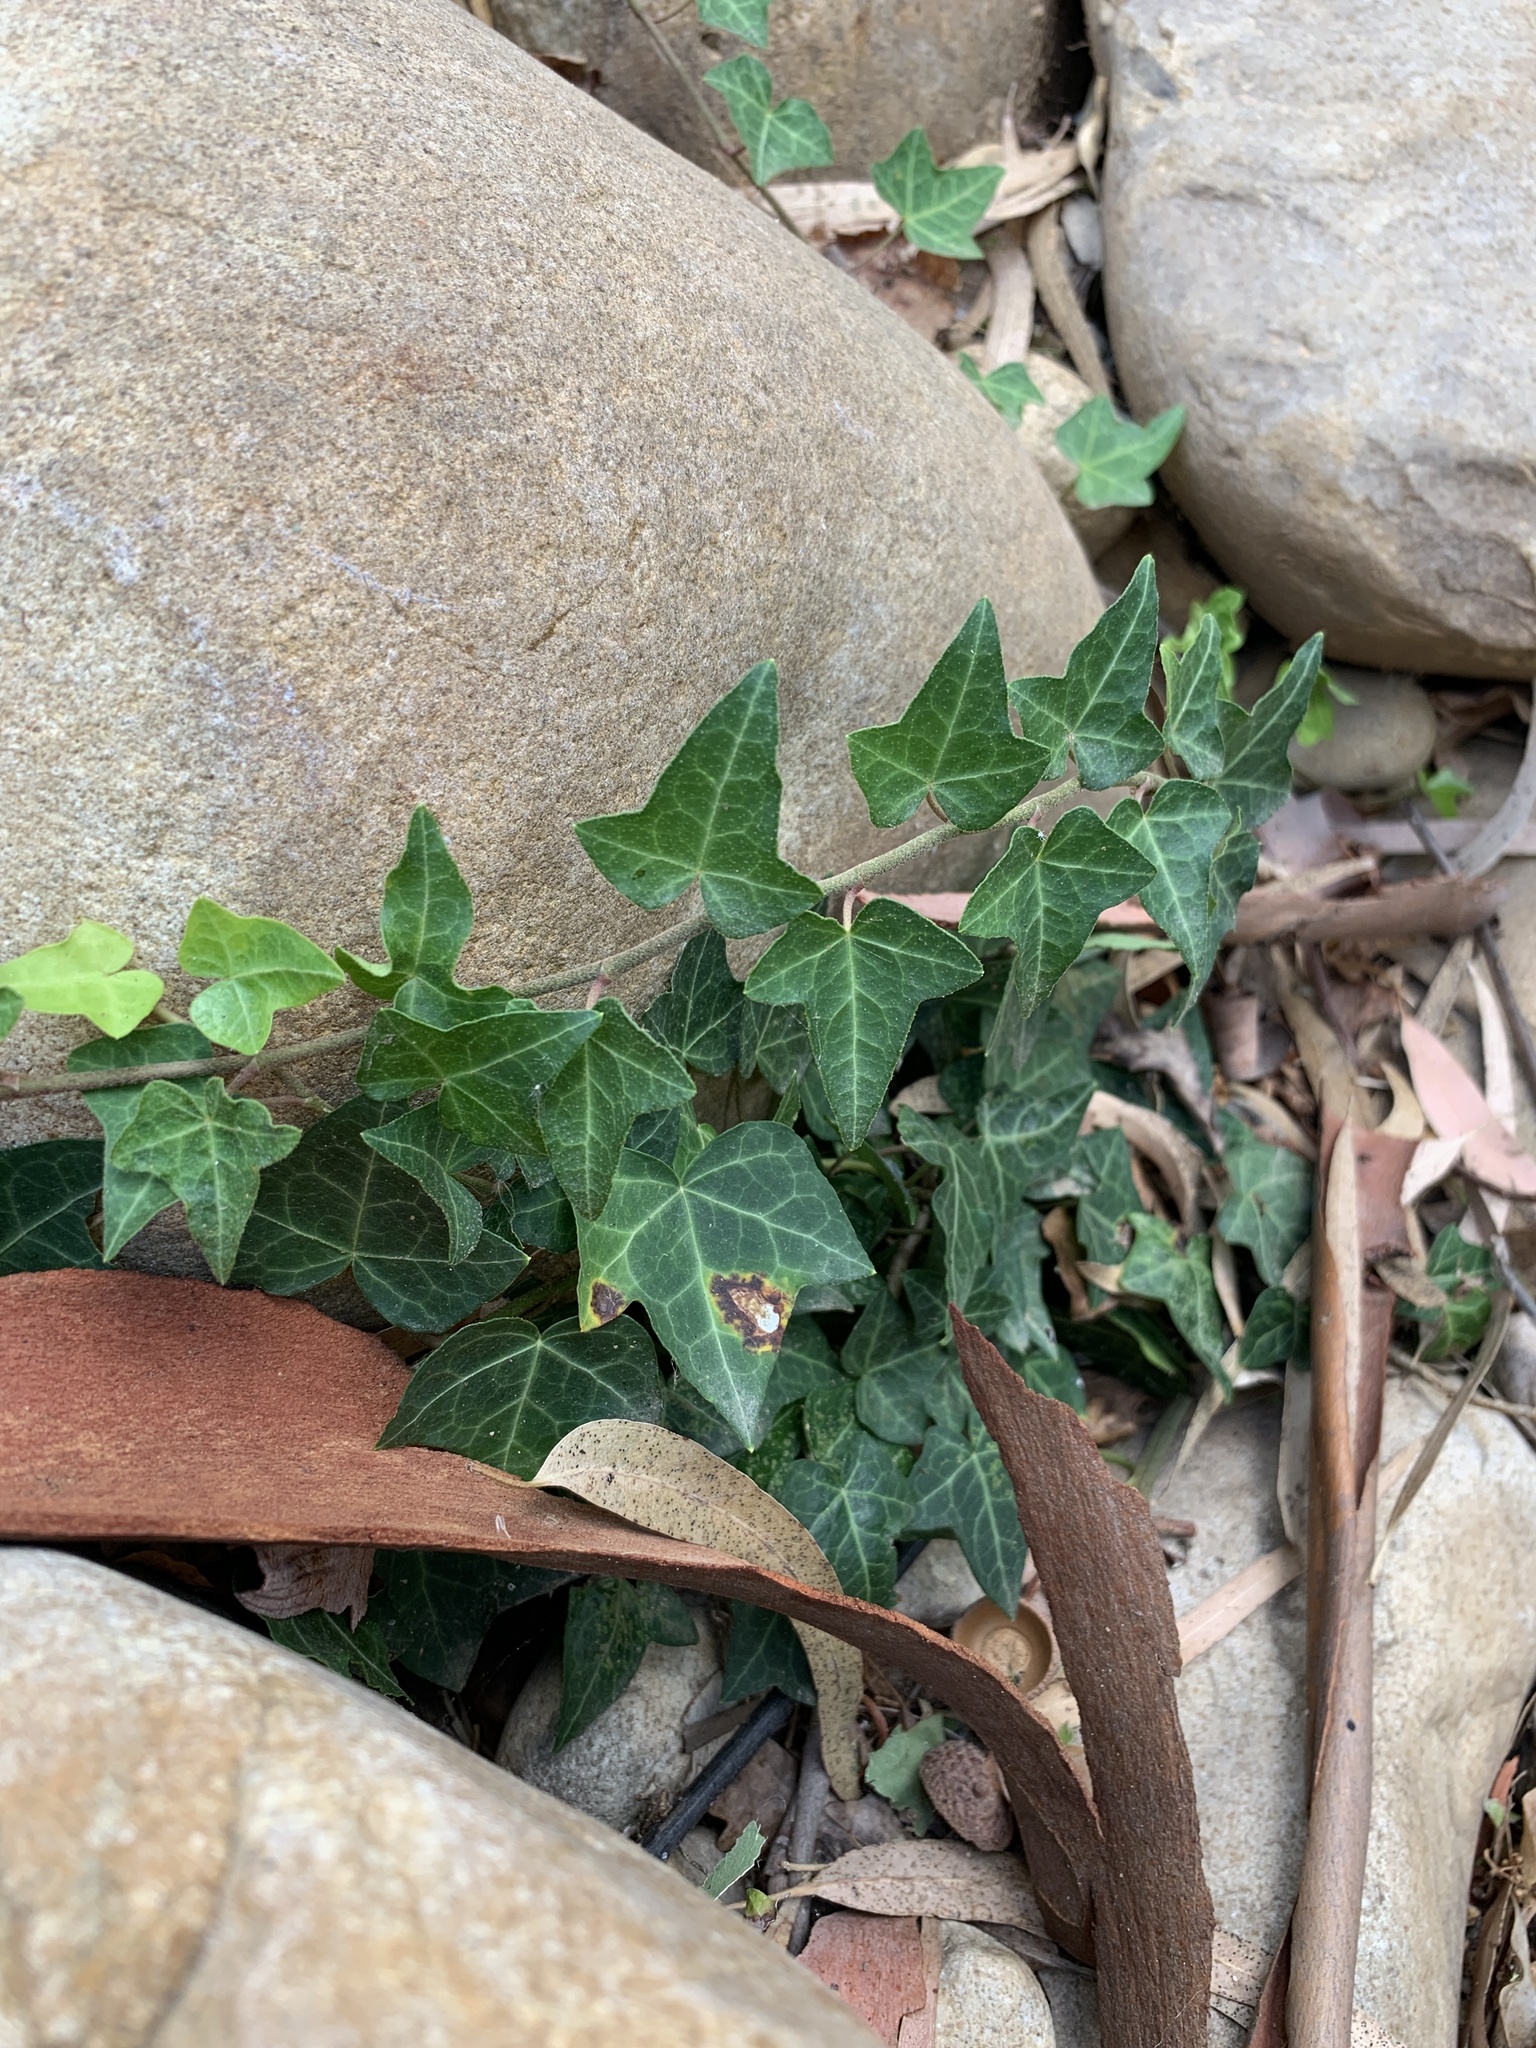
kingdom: Plantae
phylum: Tracheophyta
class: Magnoliopsida
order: Apiales
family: Araliaceae
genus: Hedera
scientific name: Hedera helix
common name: Ivy
